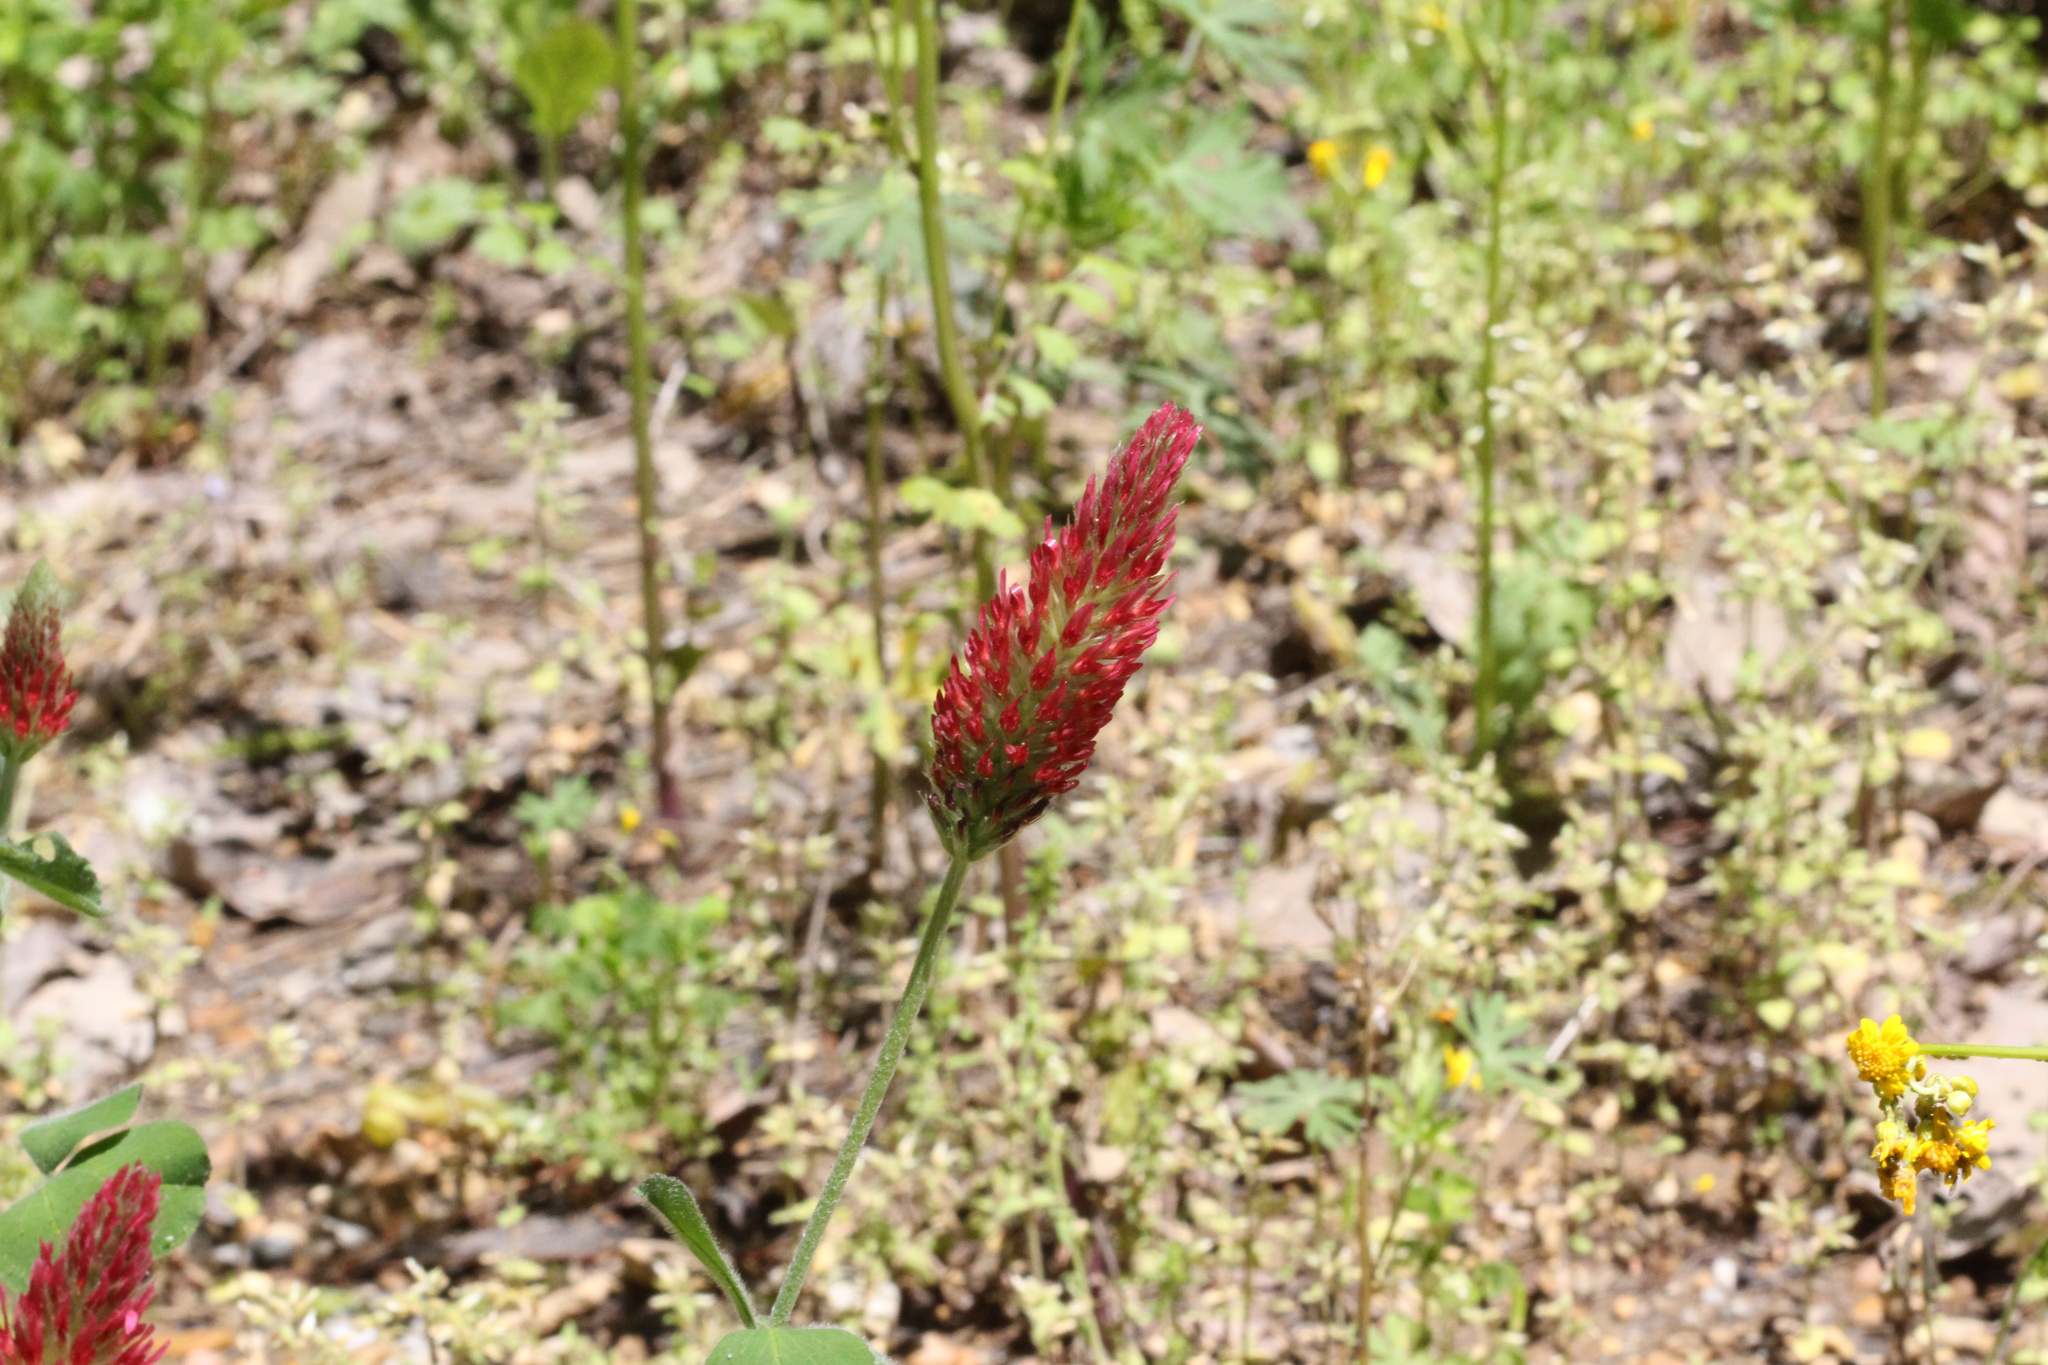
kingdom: Plantae
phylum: Tracheophyta
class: Magnoliopsida
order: Fabales
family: Fabaceae
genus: Trifolium
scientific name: Trifolium incarnatum
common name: Crimson clover
